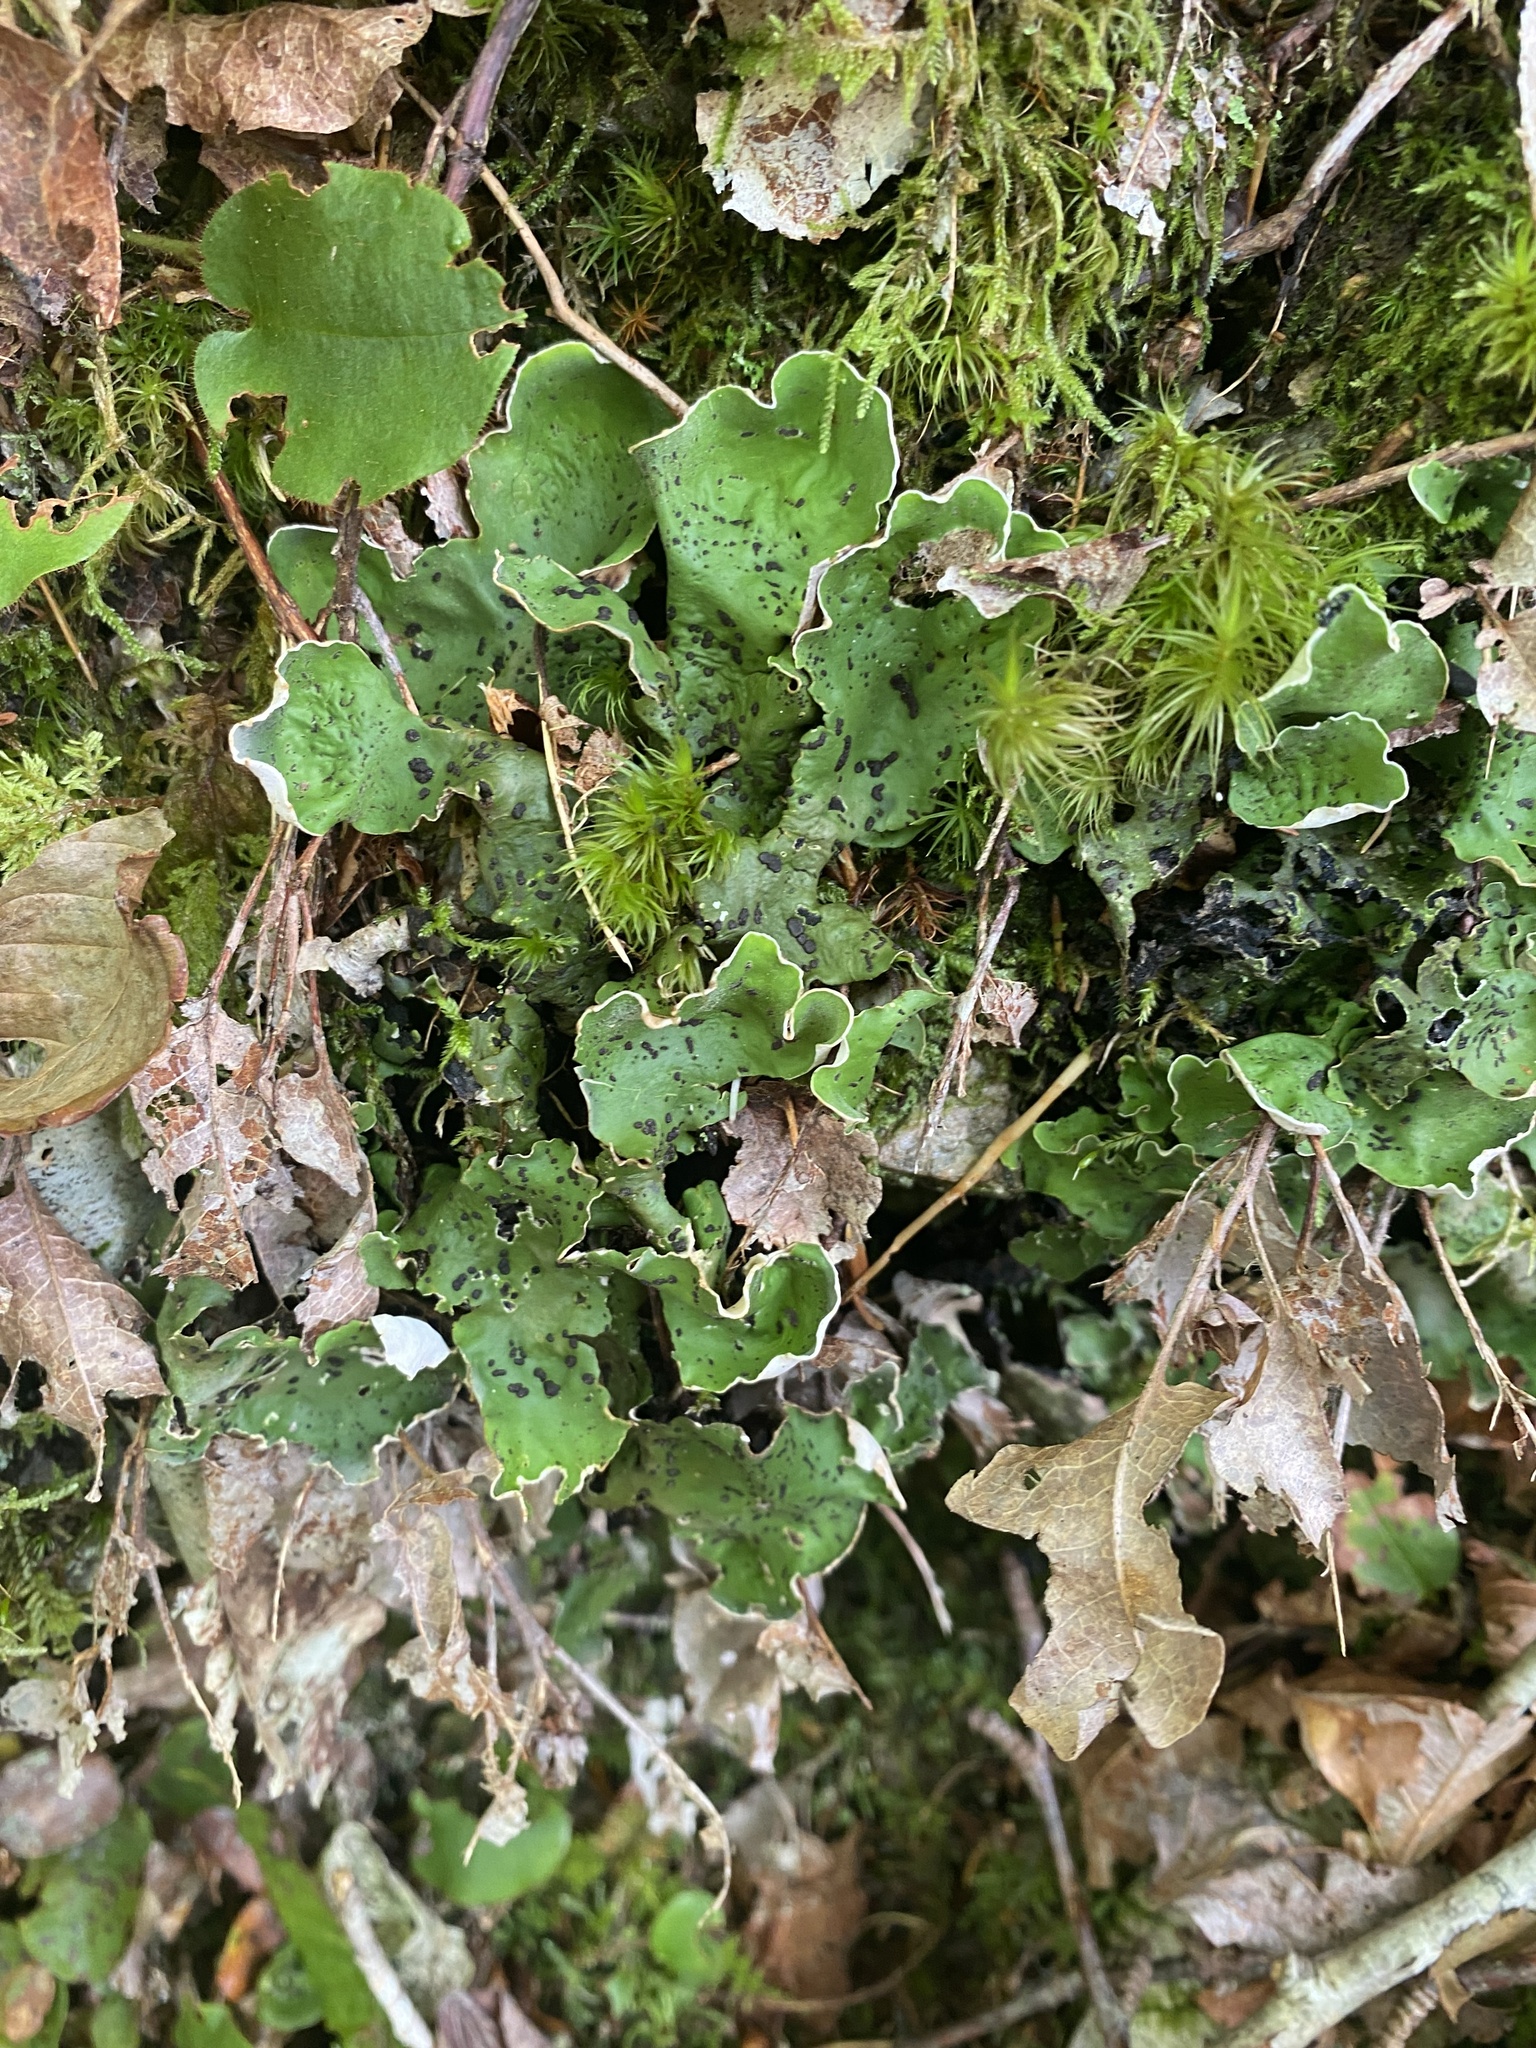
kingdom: Fungi
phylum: Ascomycota
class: Lecanoromycetes
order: Peltigerales
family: Peltigeraceae
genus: Peltigera
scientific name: Peltigera aphthosa
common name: Common freckle pelt lichen
